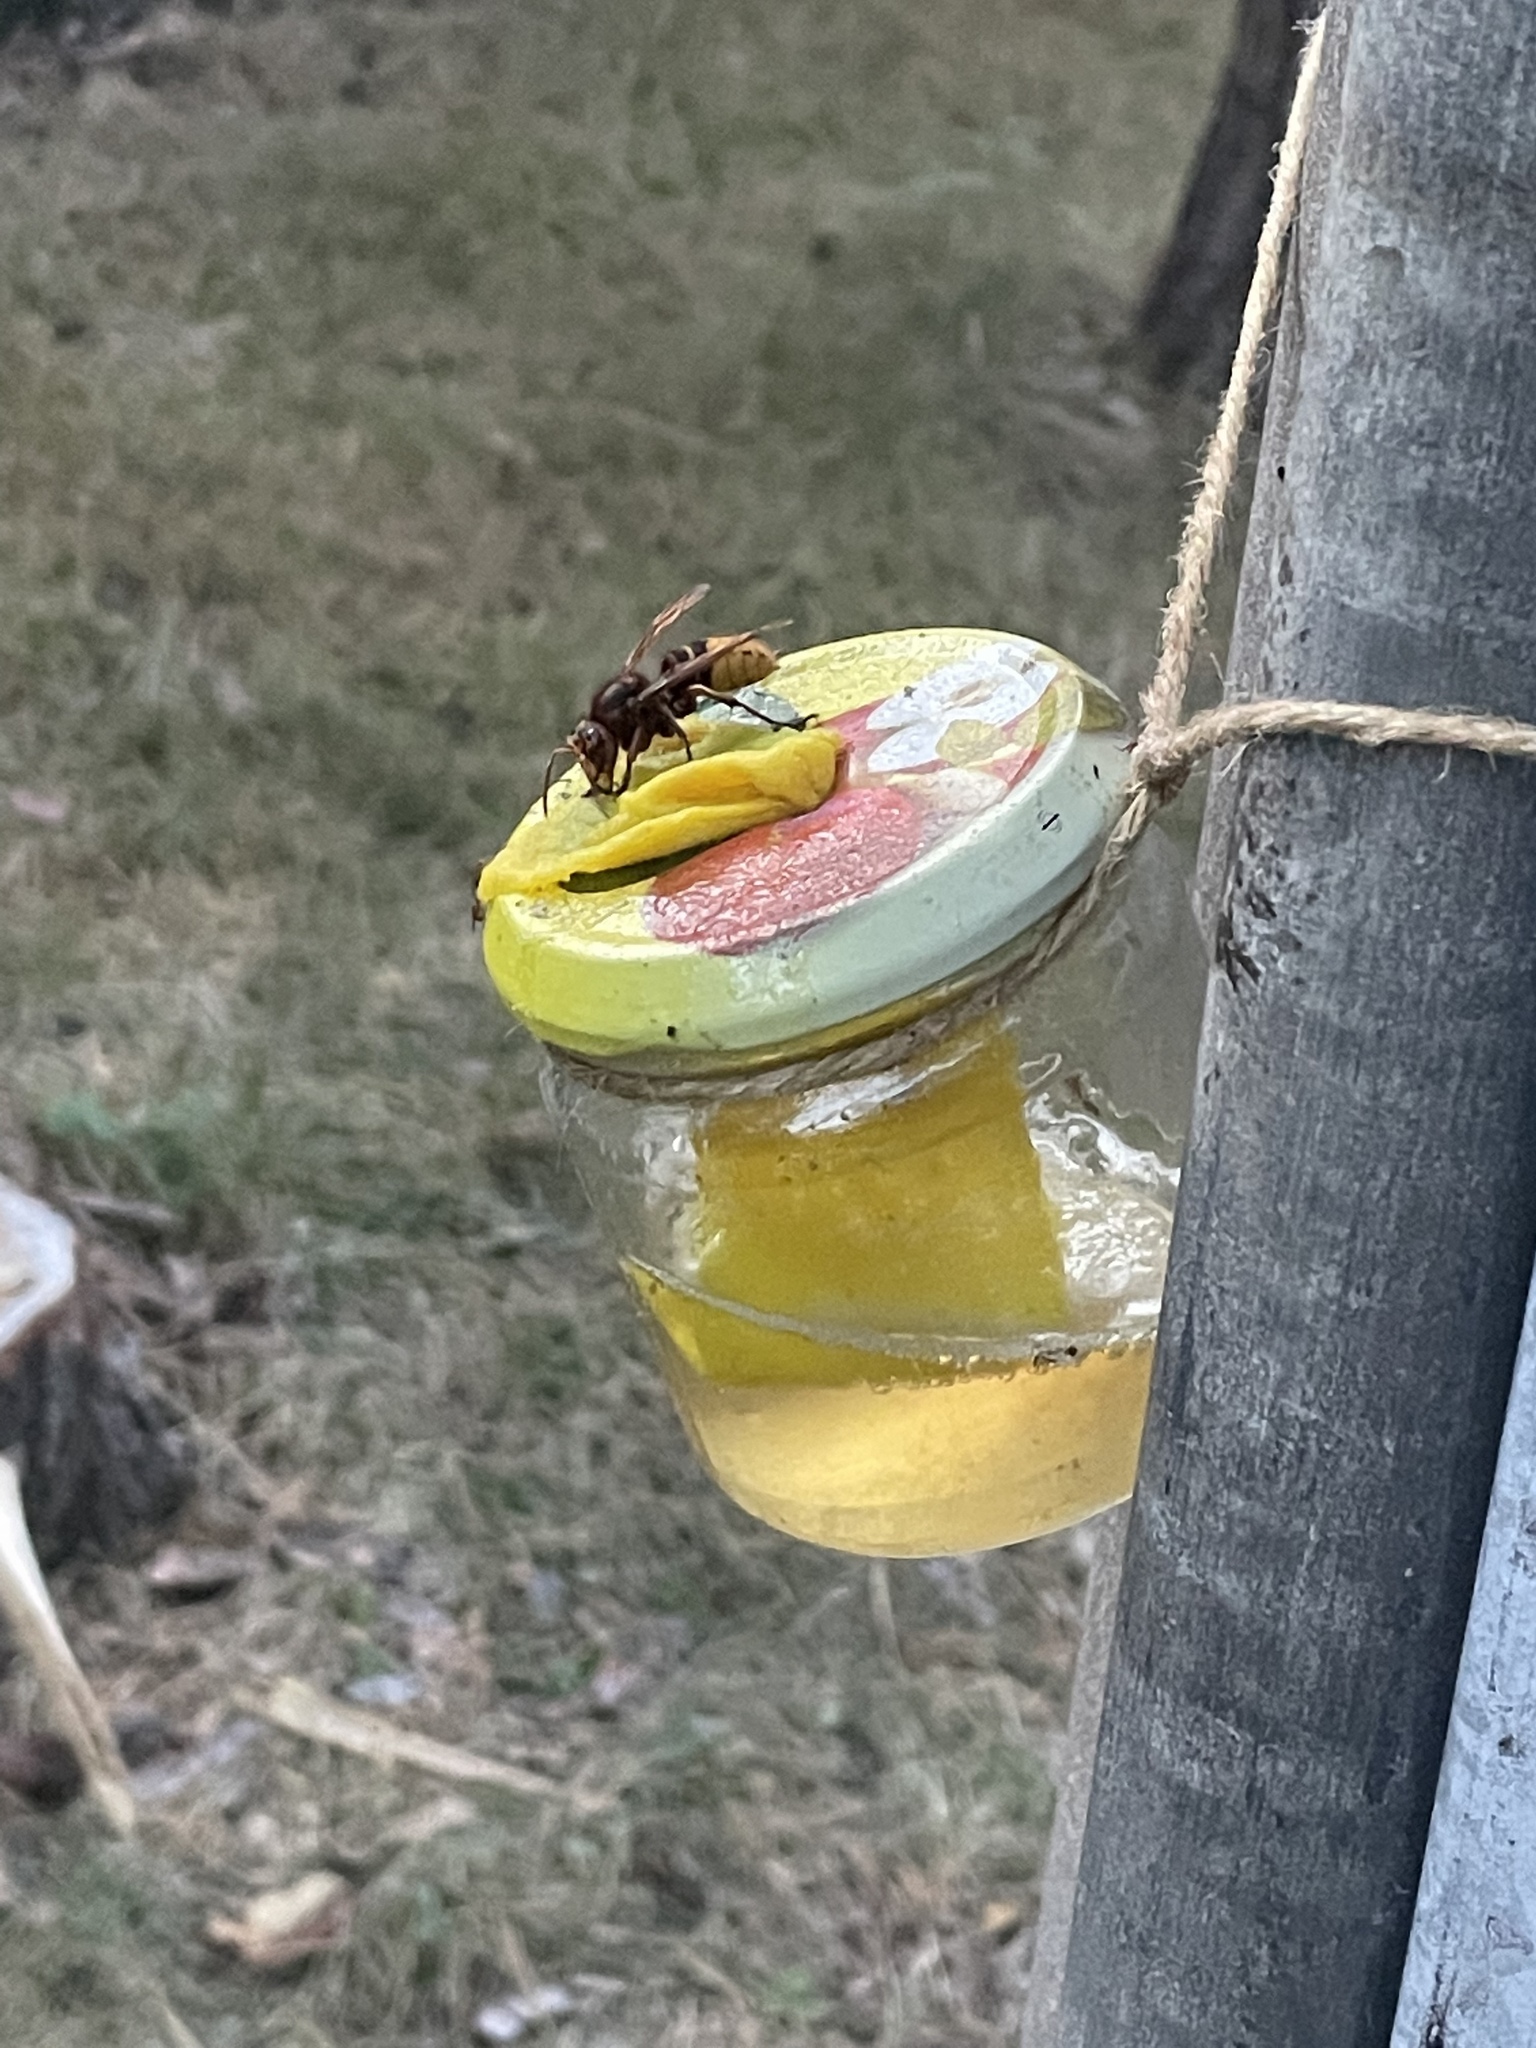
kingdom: Animalia
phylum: Arthropoda
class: Insecta
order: Hymenoptera
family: Vespidae
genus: Vespa
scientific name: Vespa crabro
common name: Hornet
